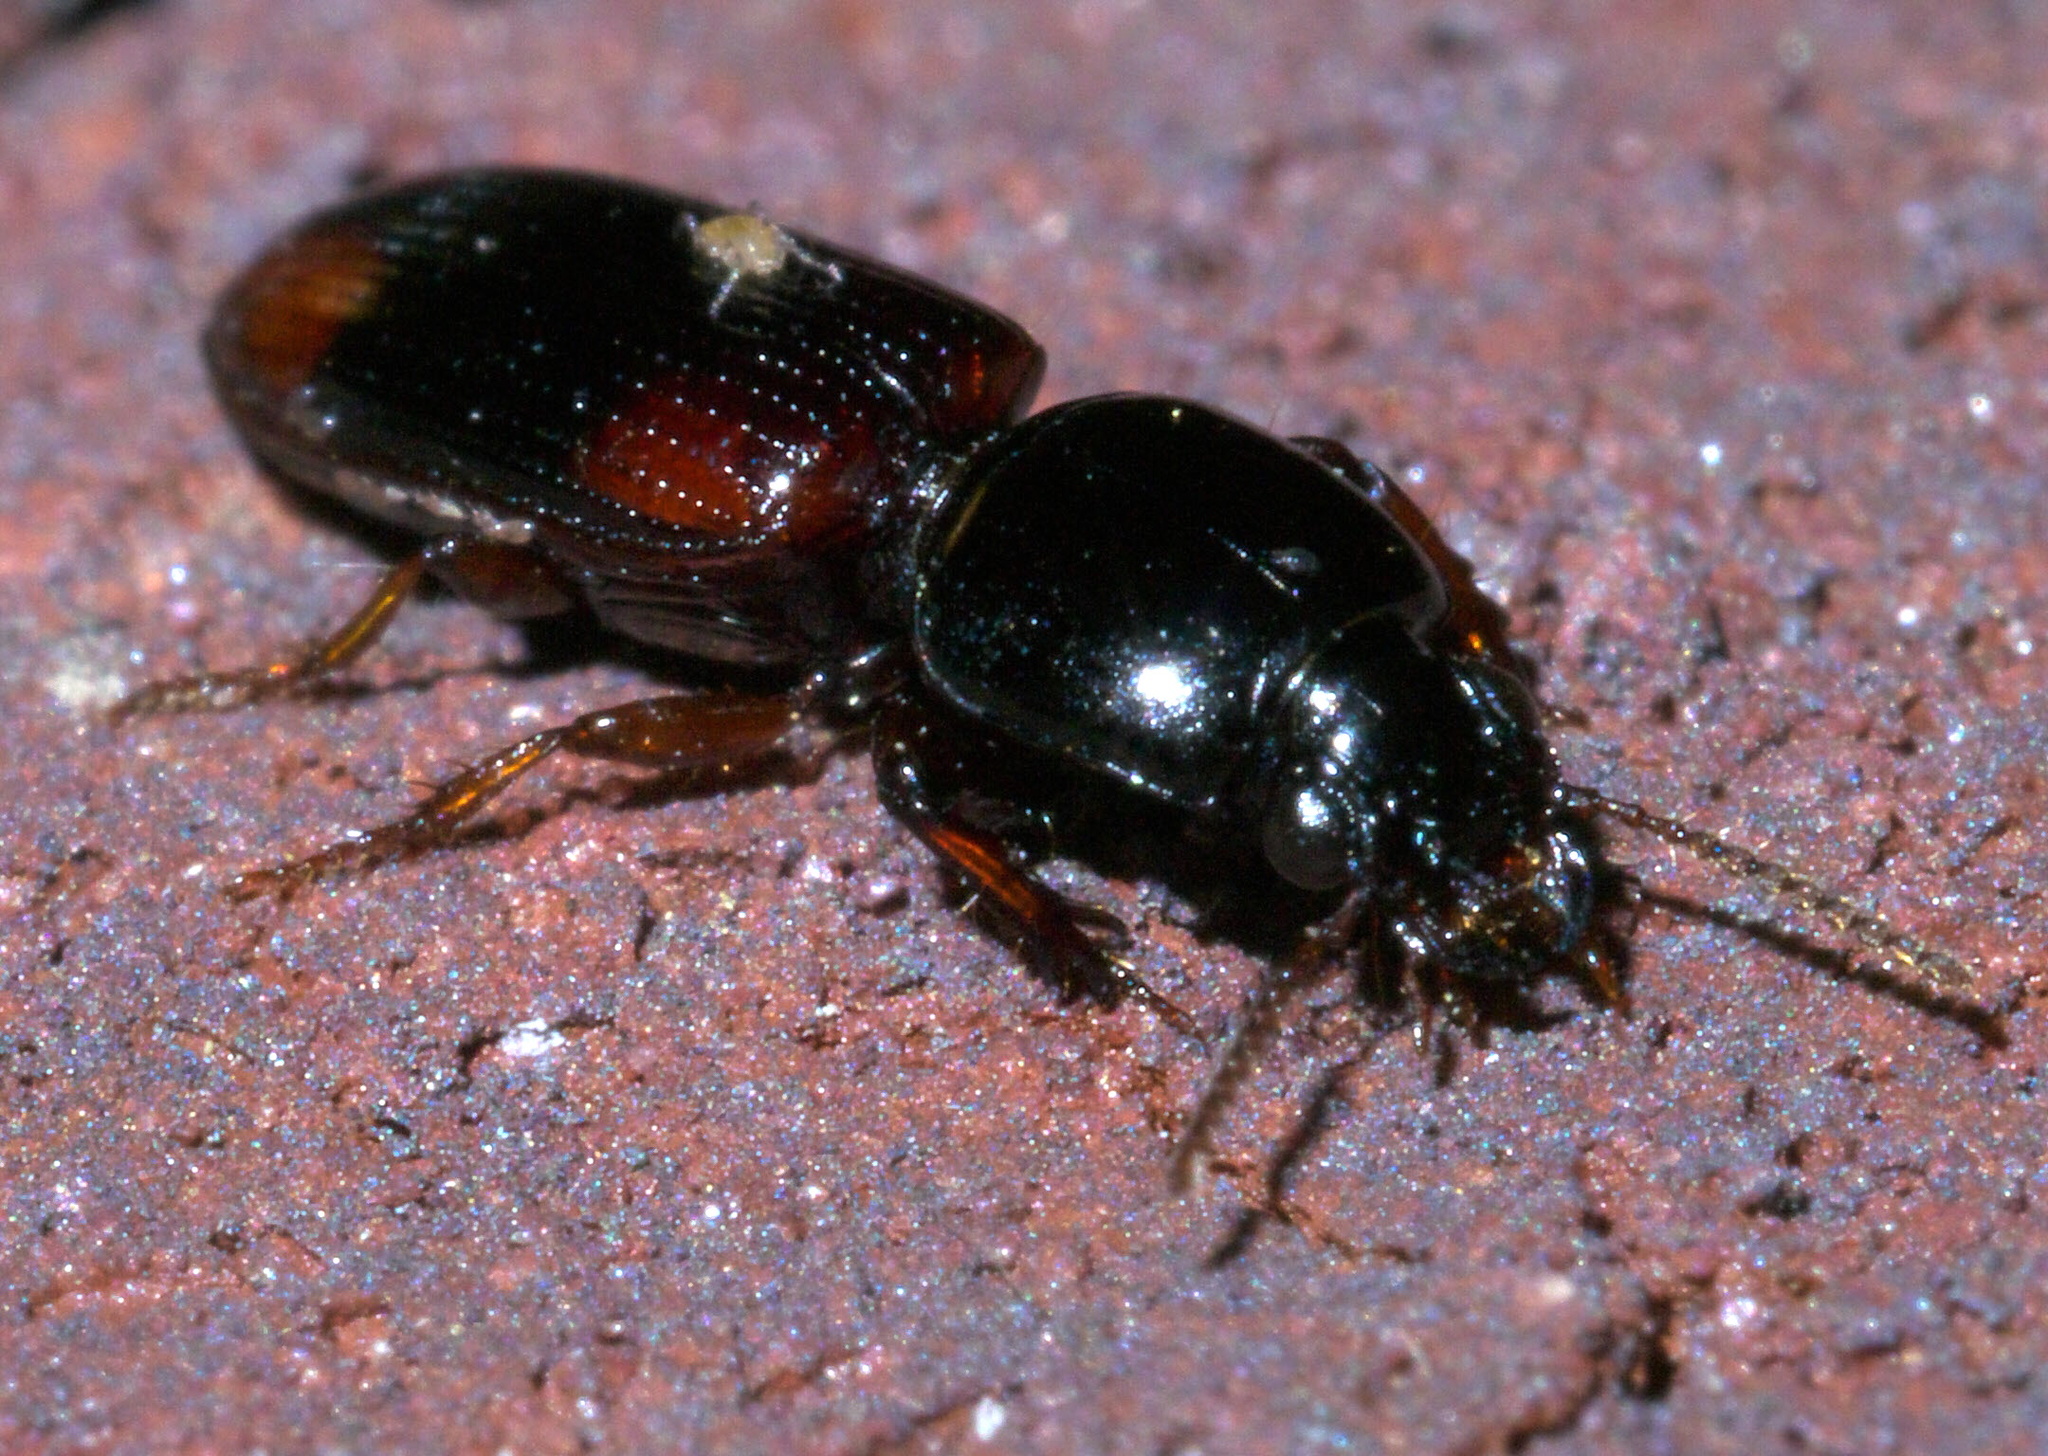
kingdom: Animalia
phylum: Arthropoda
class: Insecta
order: Coleoptera
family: Carabidae
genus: Clivina
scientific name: Clivina bipustulata
